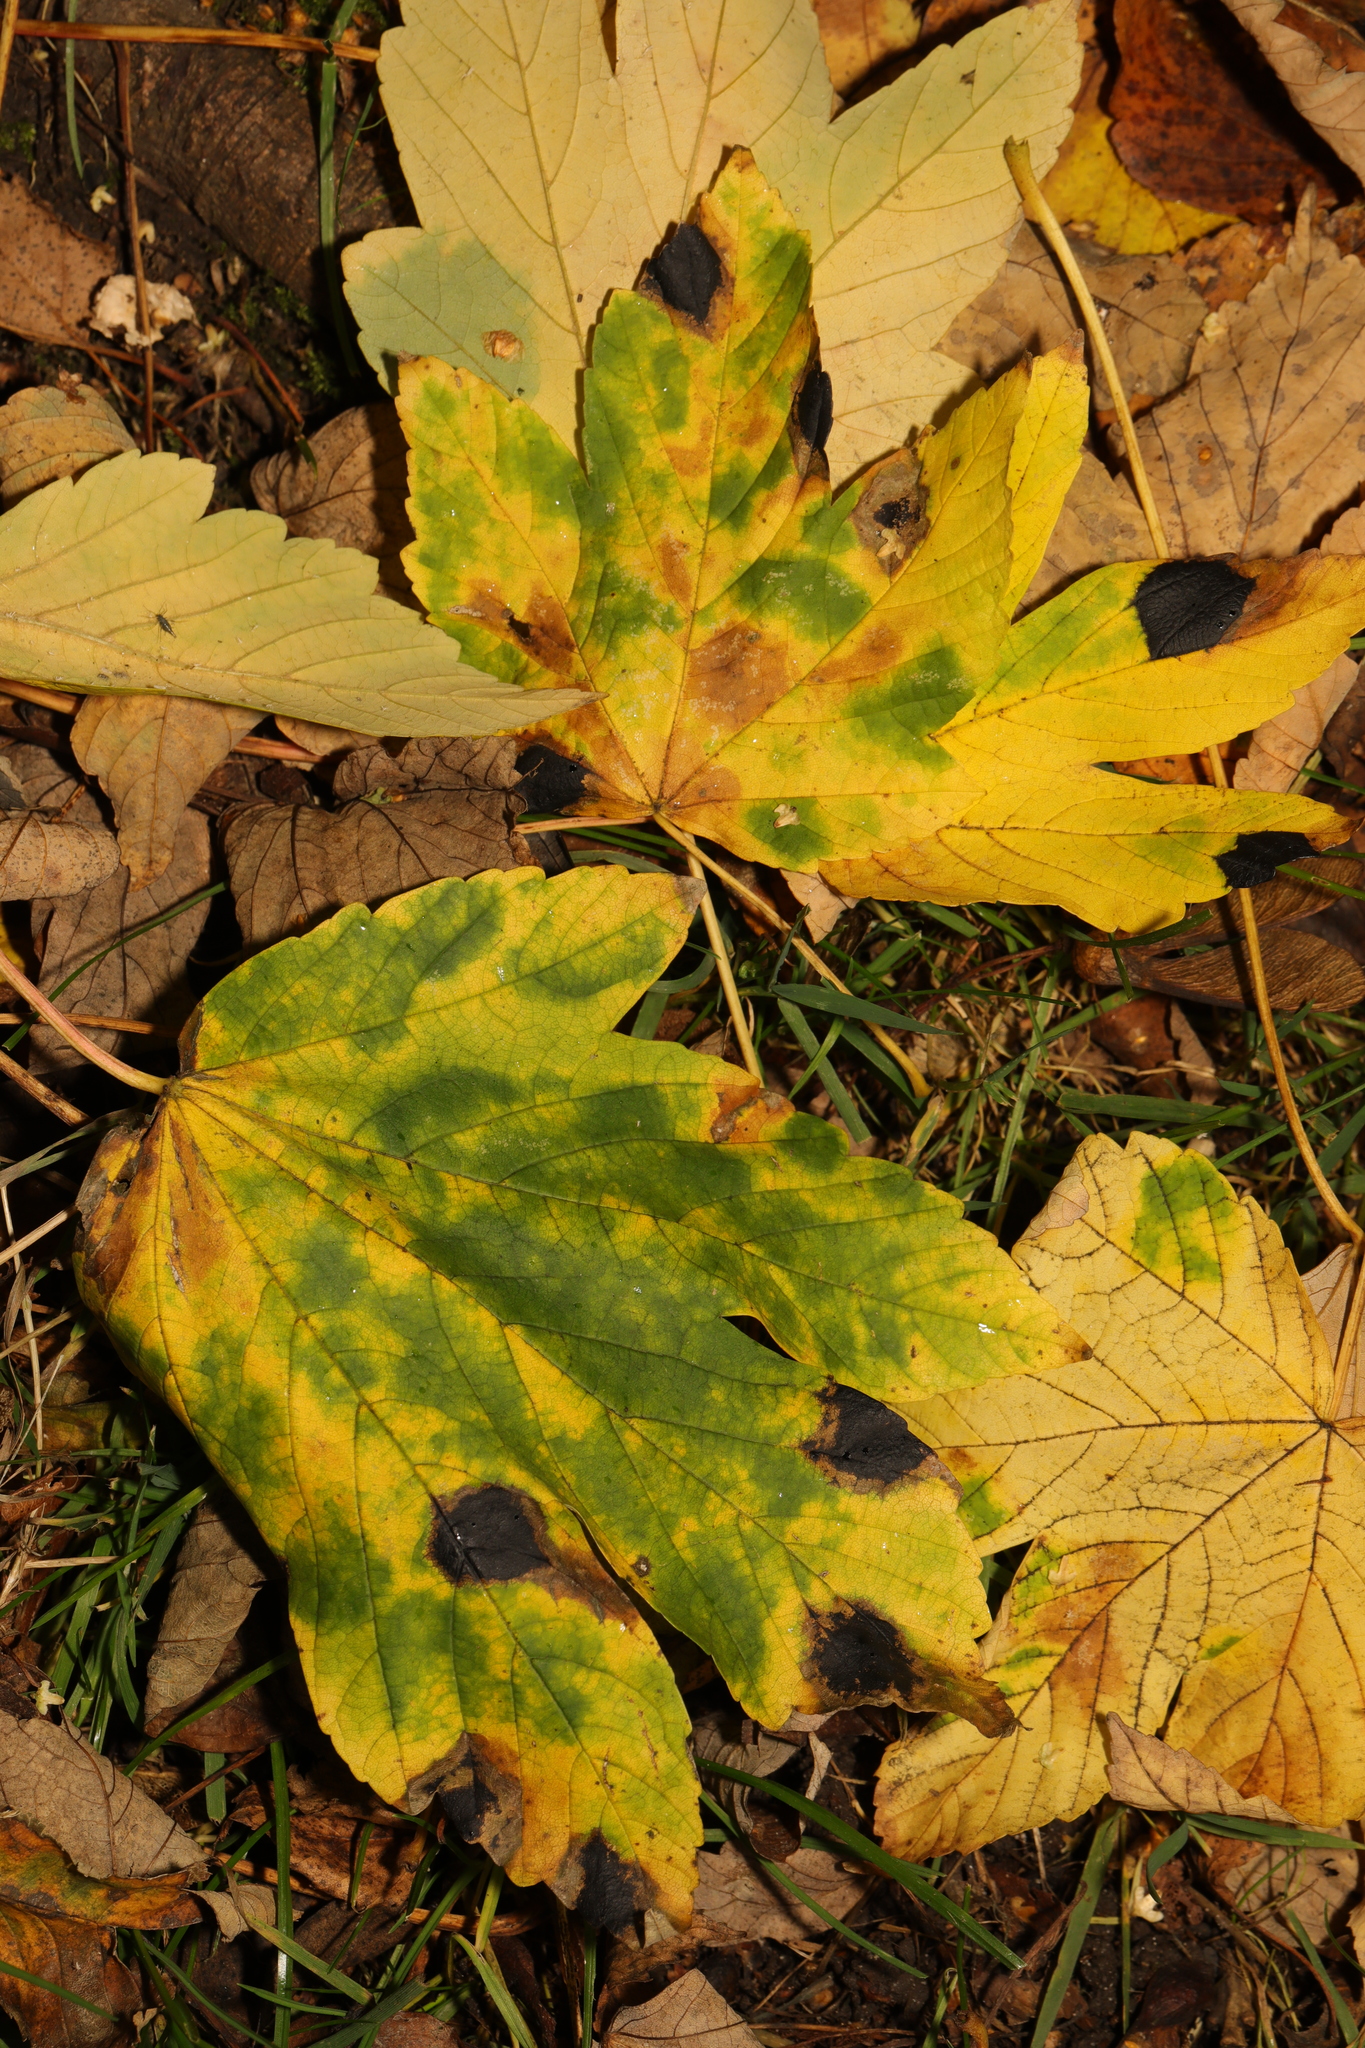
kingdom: Plantae
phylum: Tracheophyta
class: Magnoliopsida
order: Sapindales
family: Sapindaceae
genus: Acer
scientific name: Acer pseudoplatanus
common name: Sycamore
